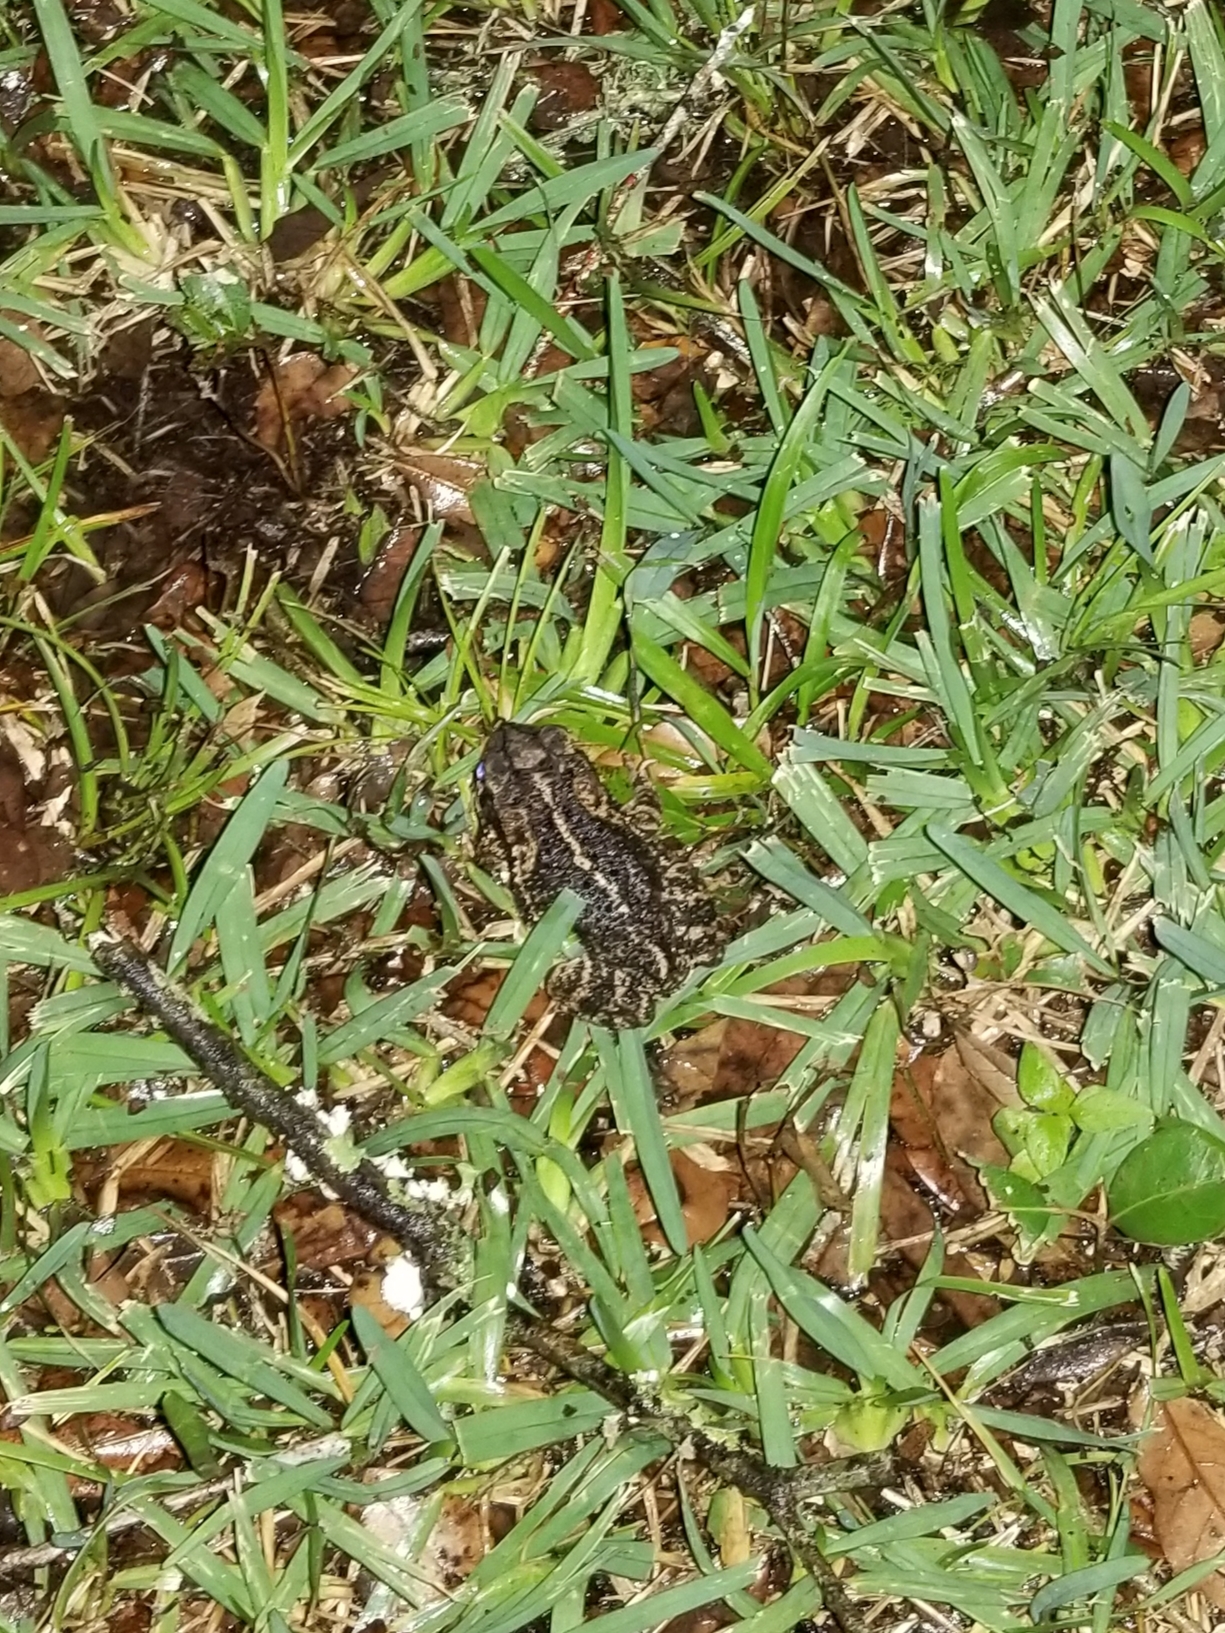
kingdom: Animalia
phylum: Chordata
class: Amphibia
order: Anura
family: Bufonidae
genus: Incilius
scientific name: Incilius nebulifer
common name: Gulf coast toad
